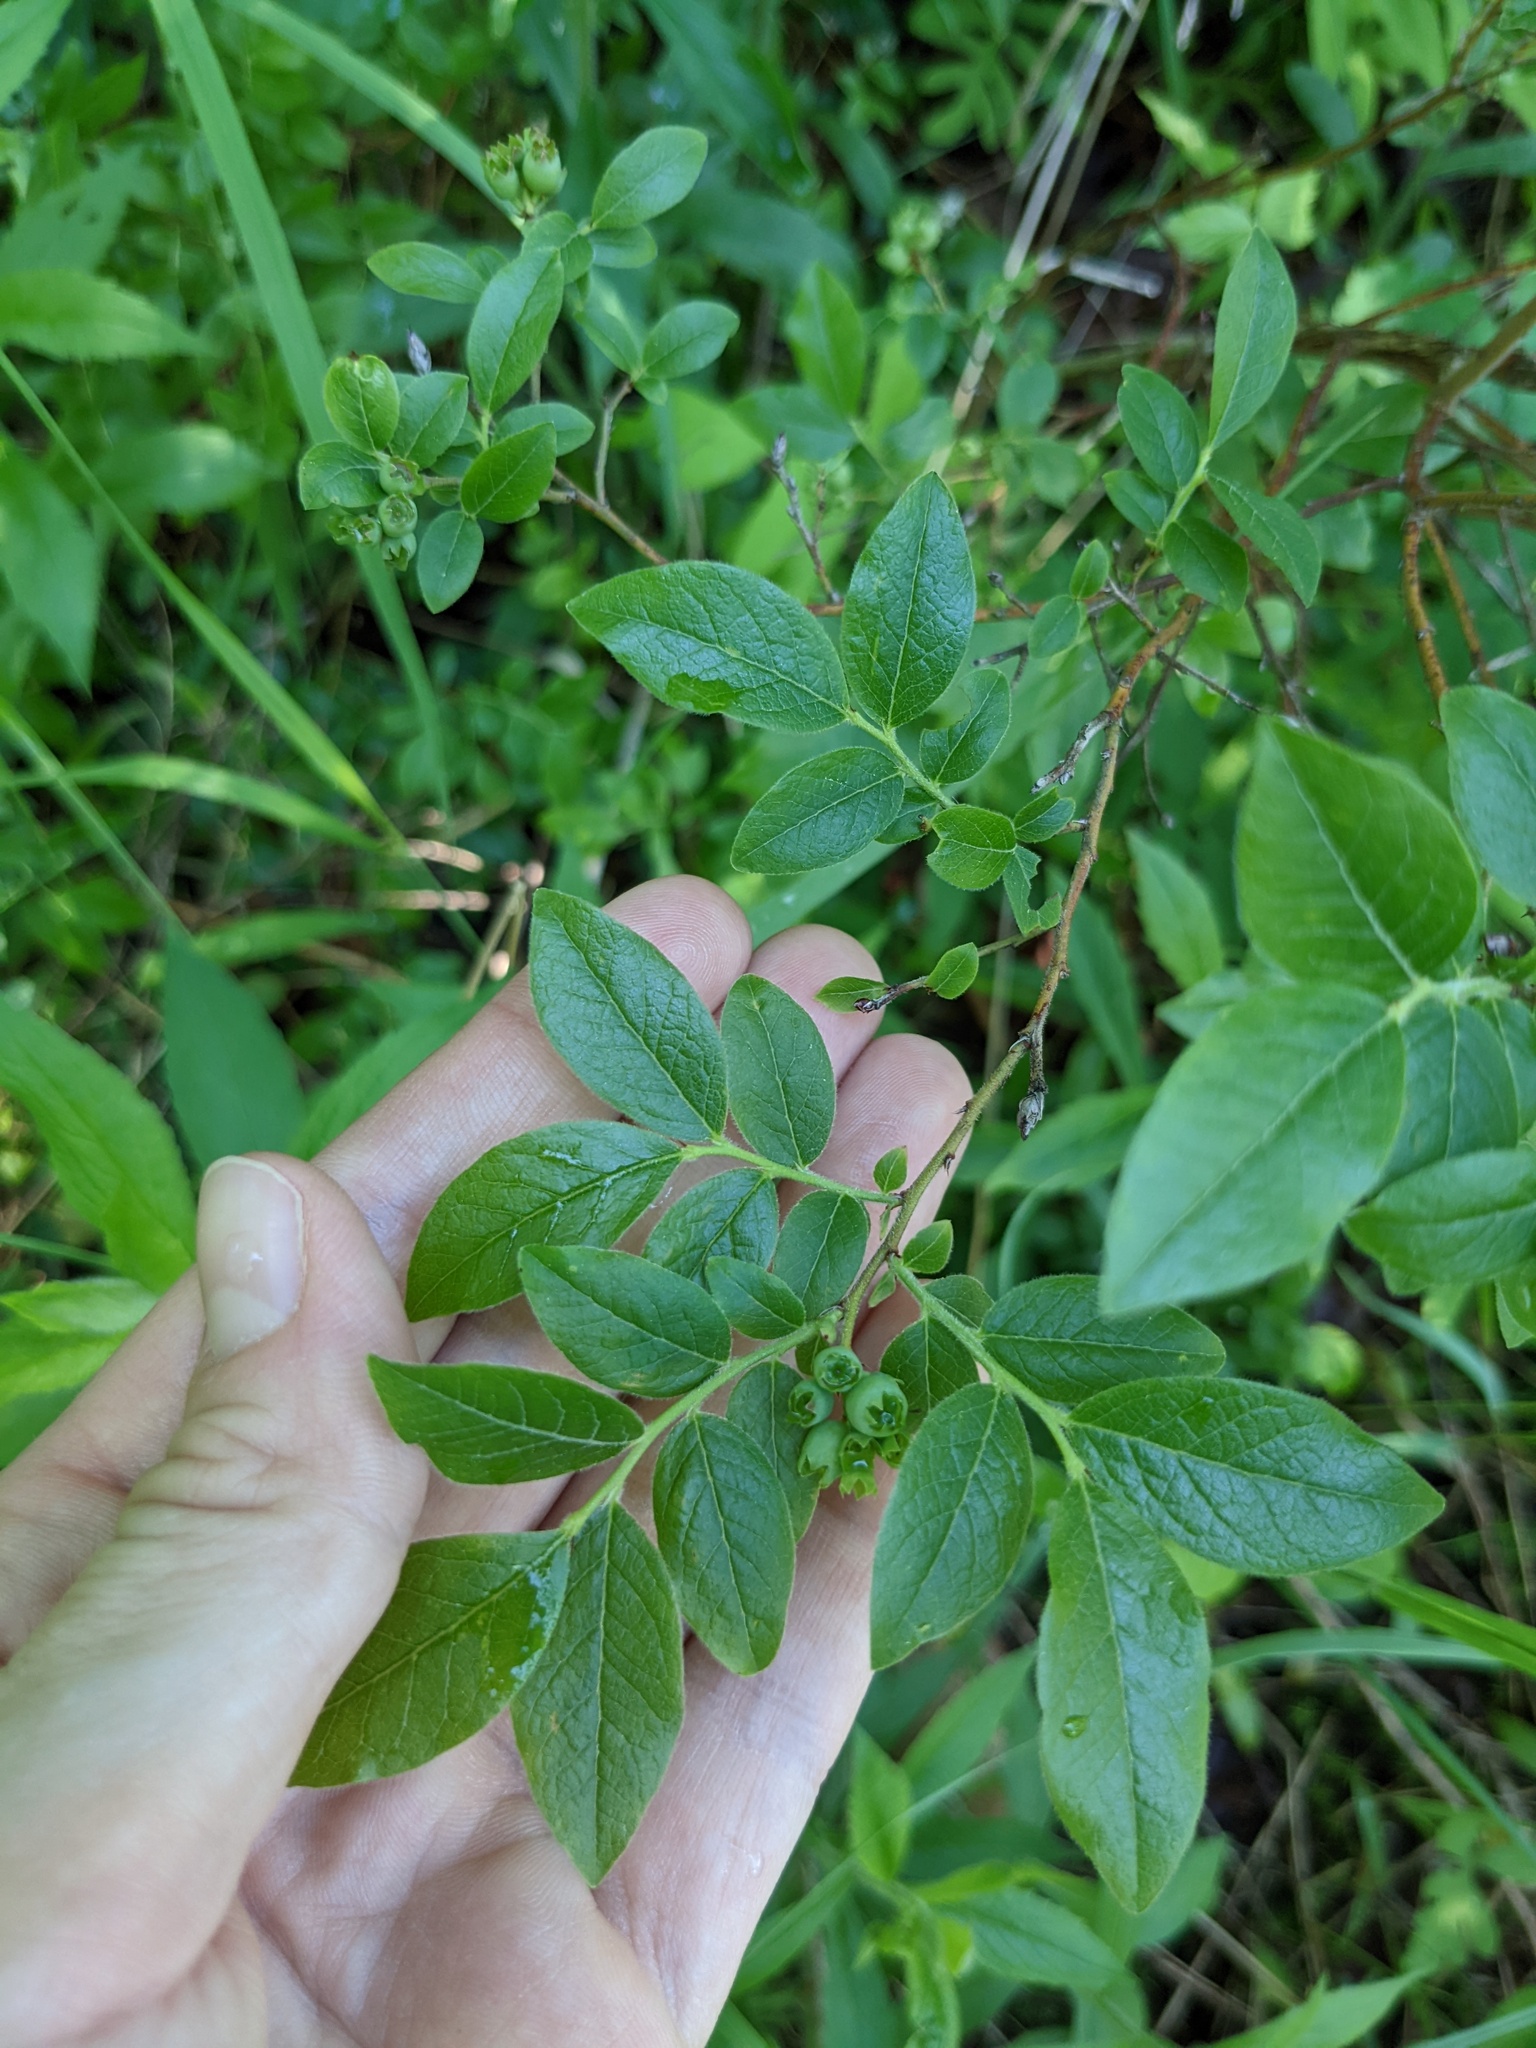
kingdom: Plantae
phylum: Tracheophyta
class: Magnoliopsida
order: Ericales
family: Ericaceae
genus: Vaccinium
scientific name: Vaccinium myrtilloides
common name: Canada blueberry
